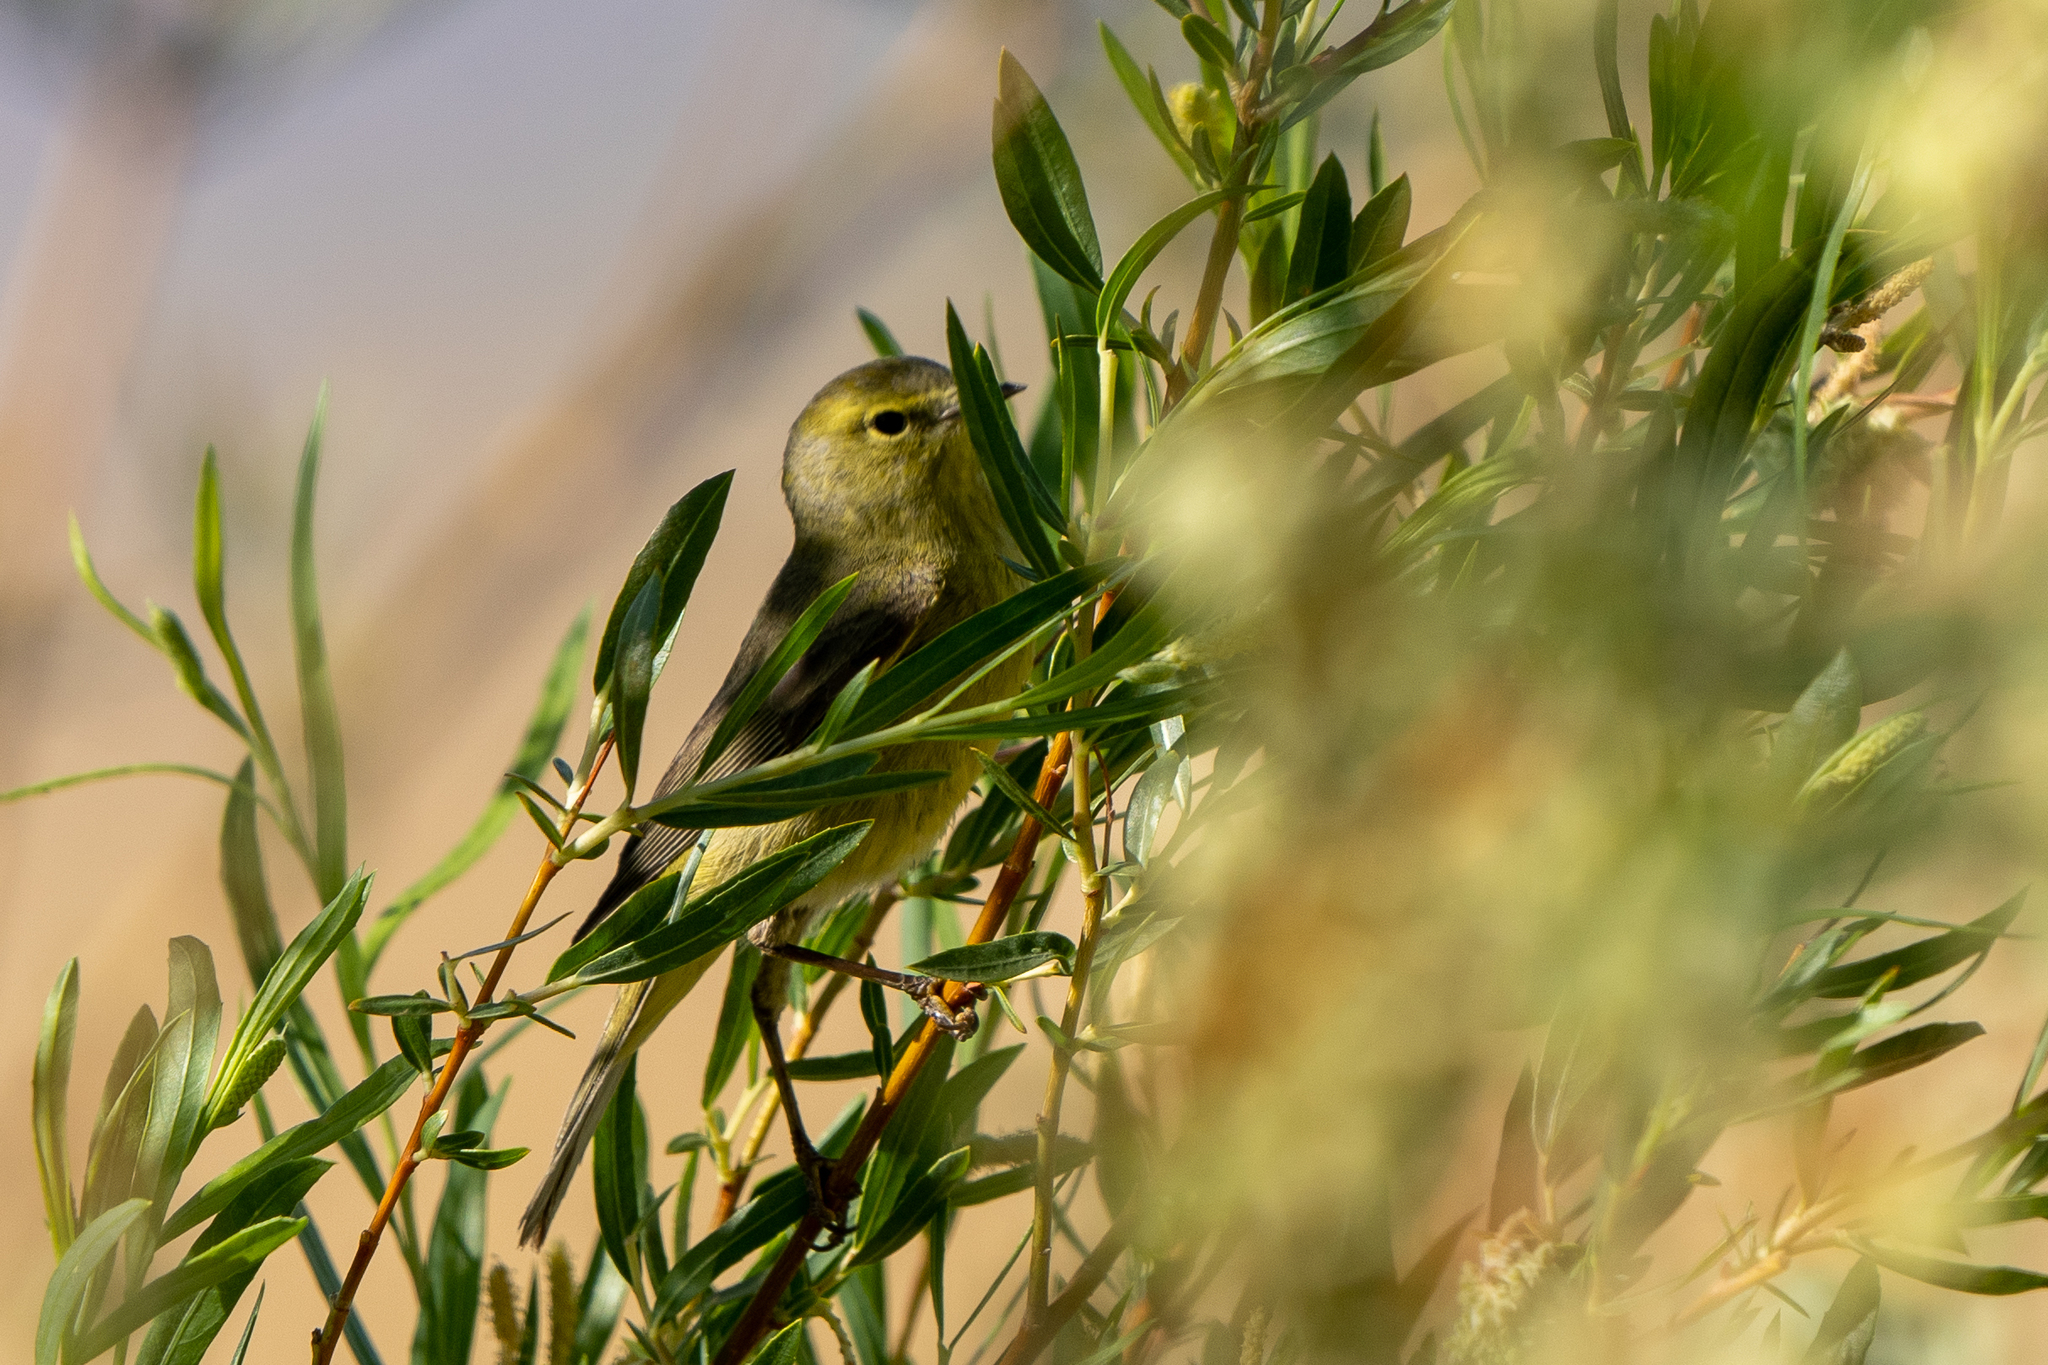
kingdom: Animalia
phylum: Chordata
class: Aves
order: Passeriformes
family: Parulidae
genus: Leiothlypis
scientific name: Leiothlypis celata
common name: Orange-crowned warbler
